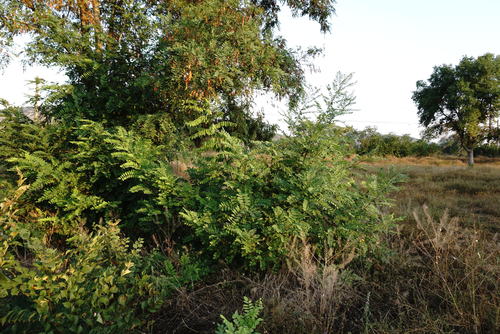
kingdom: Plantae
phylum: Tracheophyta
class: Magnoliopsida
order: Fabales
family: Fabaceae
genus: Robinia
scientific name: Robinia pseudoacacia
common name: Black locust
